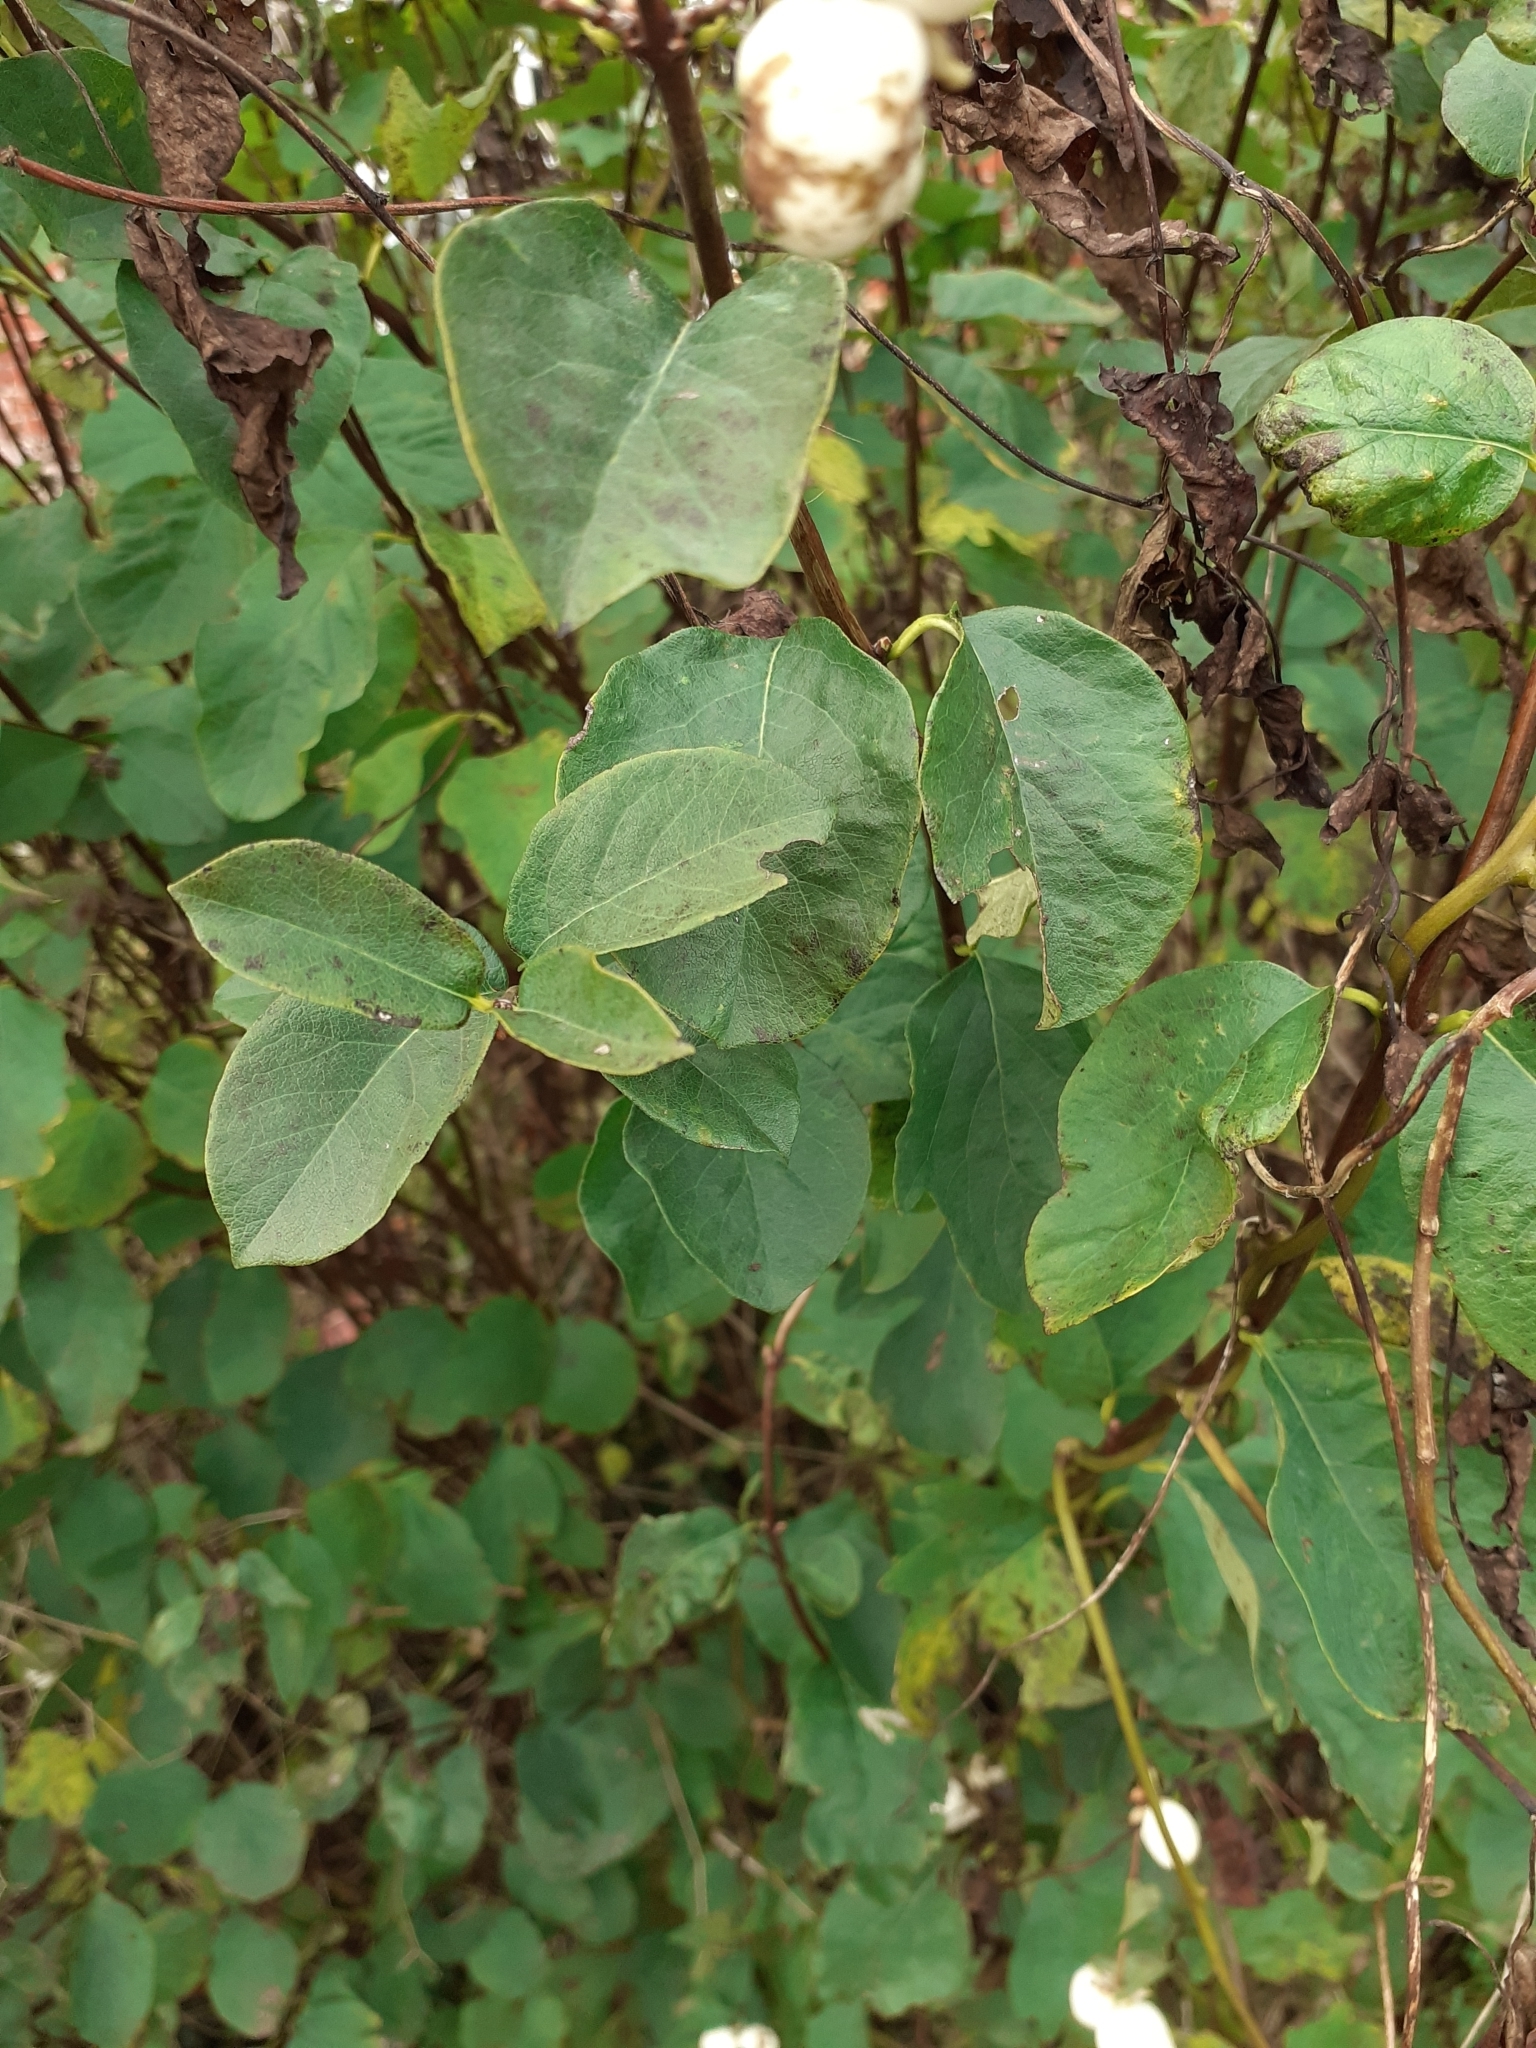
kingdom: Plantae
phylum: Tracheophyta
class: Magnoliopsida
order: Dipsacales
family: Caprifoliaceae
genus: Symphoricarpos
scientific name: Symphoricarpos albus
